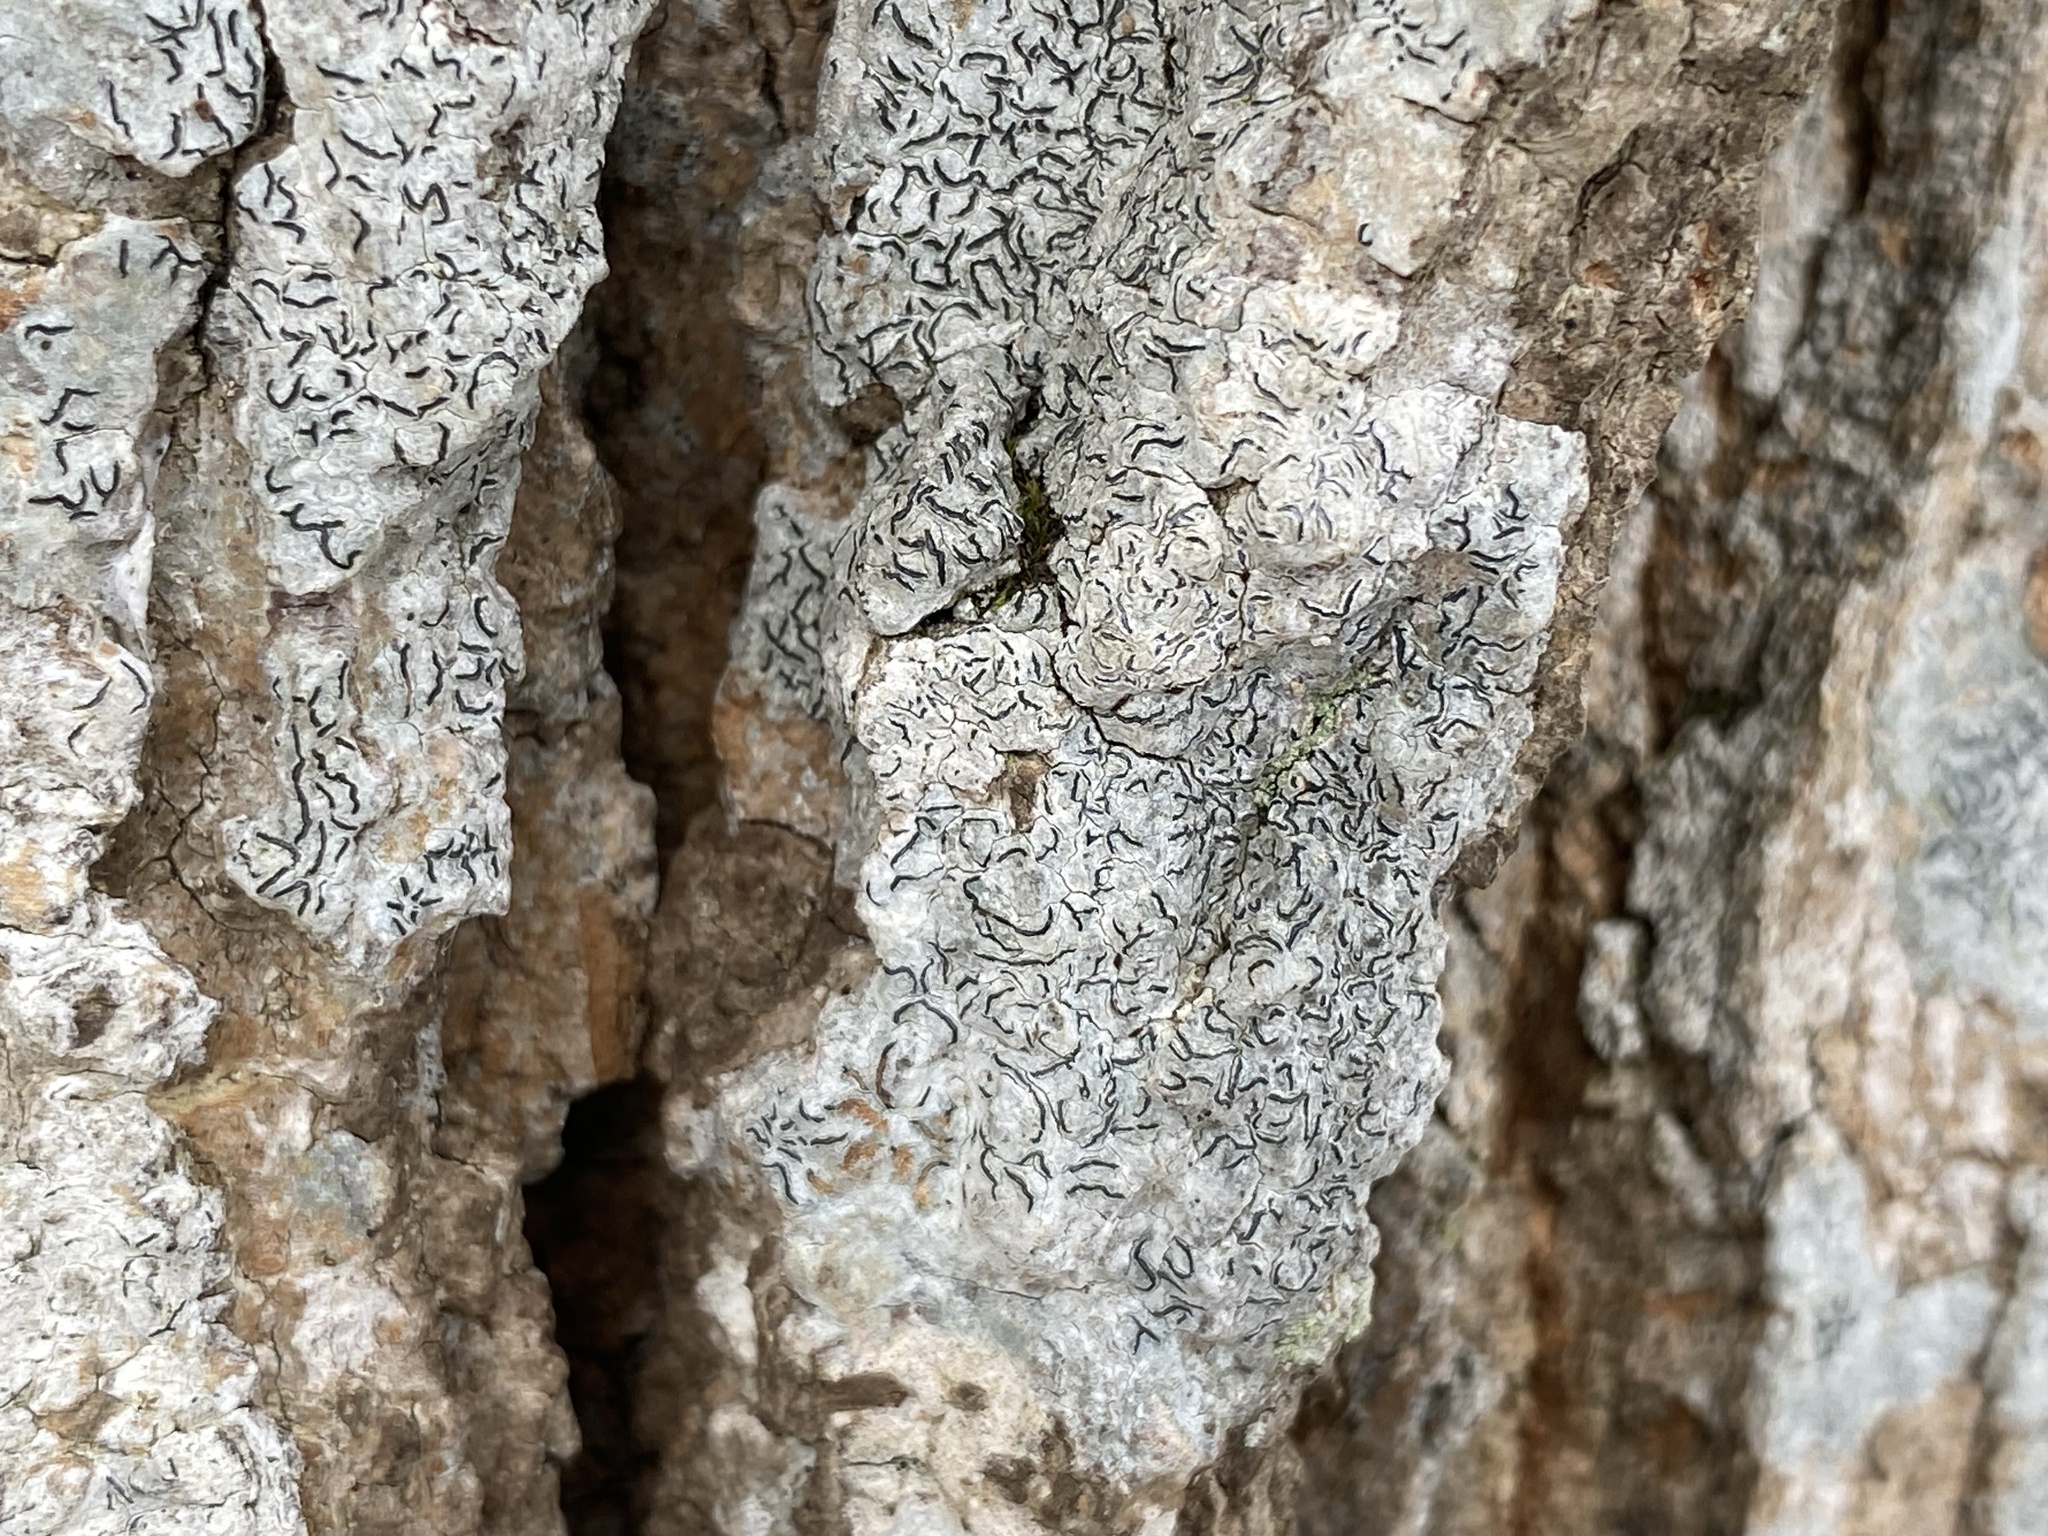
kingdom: Fungi
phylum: Ascomycota
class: Lecanoromycetes
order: Ostropales
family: Graphidaceae
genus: Graphis
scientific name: Graphis scripta
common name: Script lichen
